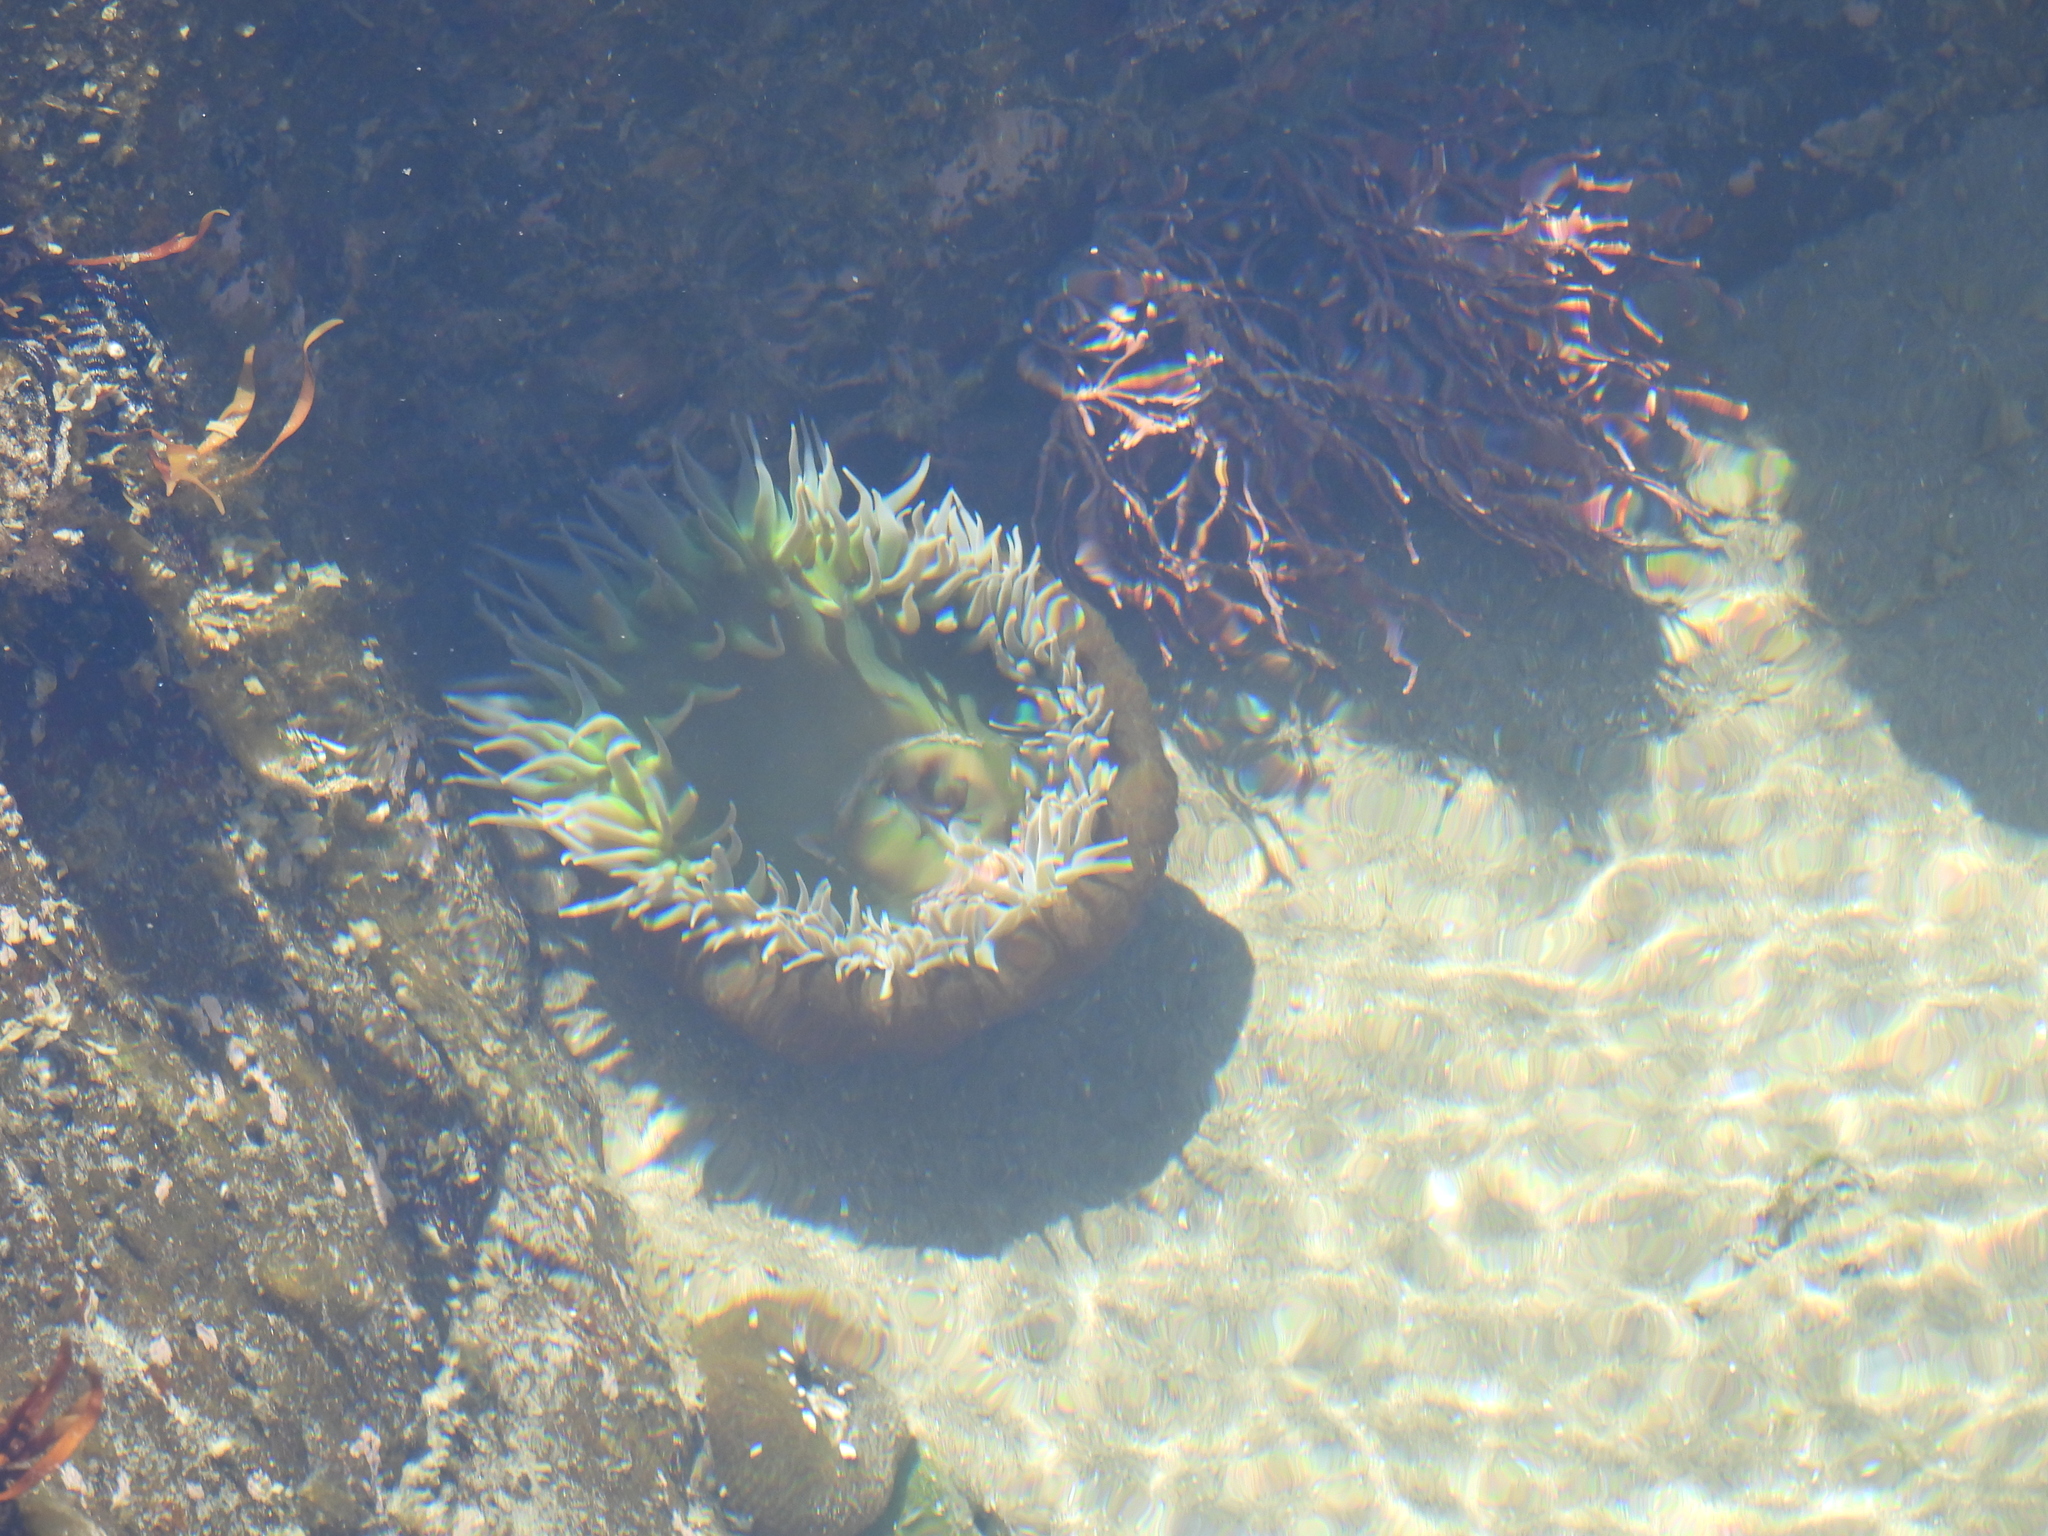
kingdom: Animalia
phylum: Cnidaria
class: Anthozoa
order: Actiniaria
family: Actiniidae
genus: Anthopleura
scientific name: Anthopleura xanthogrammica
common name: Giant green anemone
